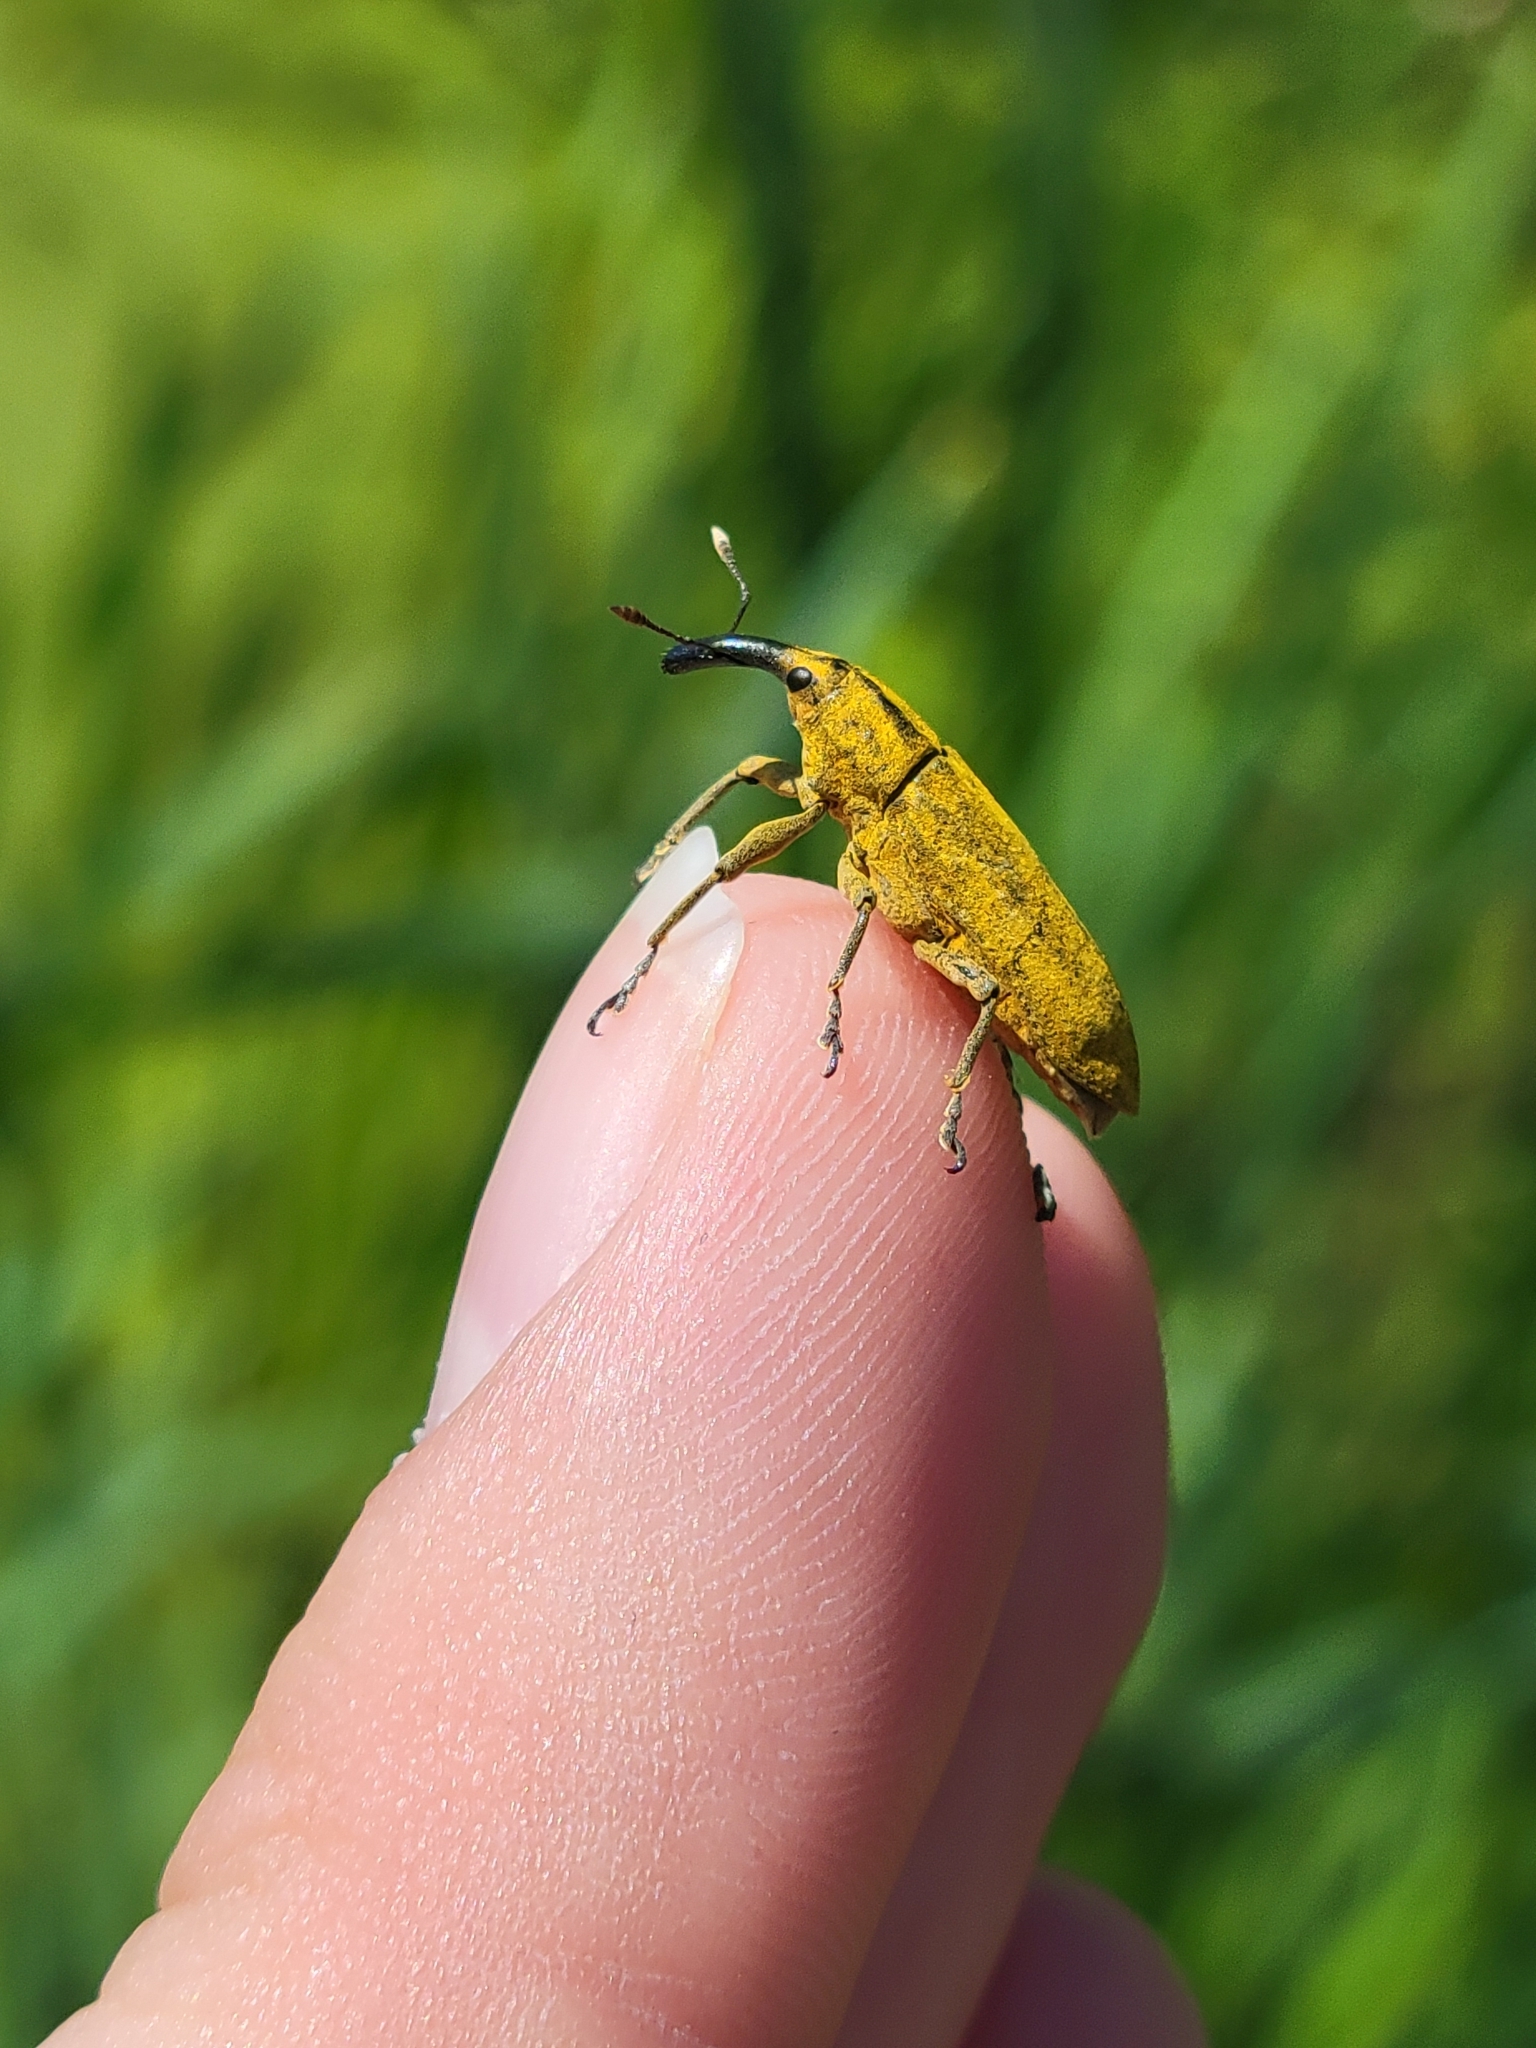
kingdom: Animalia
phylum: Arthropoda
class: Insecta
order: Coleoptera
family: Curculionidae
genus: Lixus
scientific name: Lixus concavus
